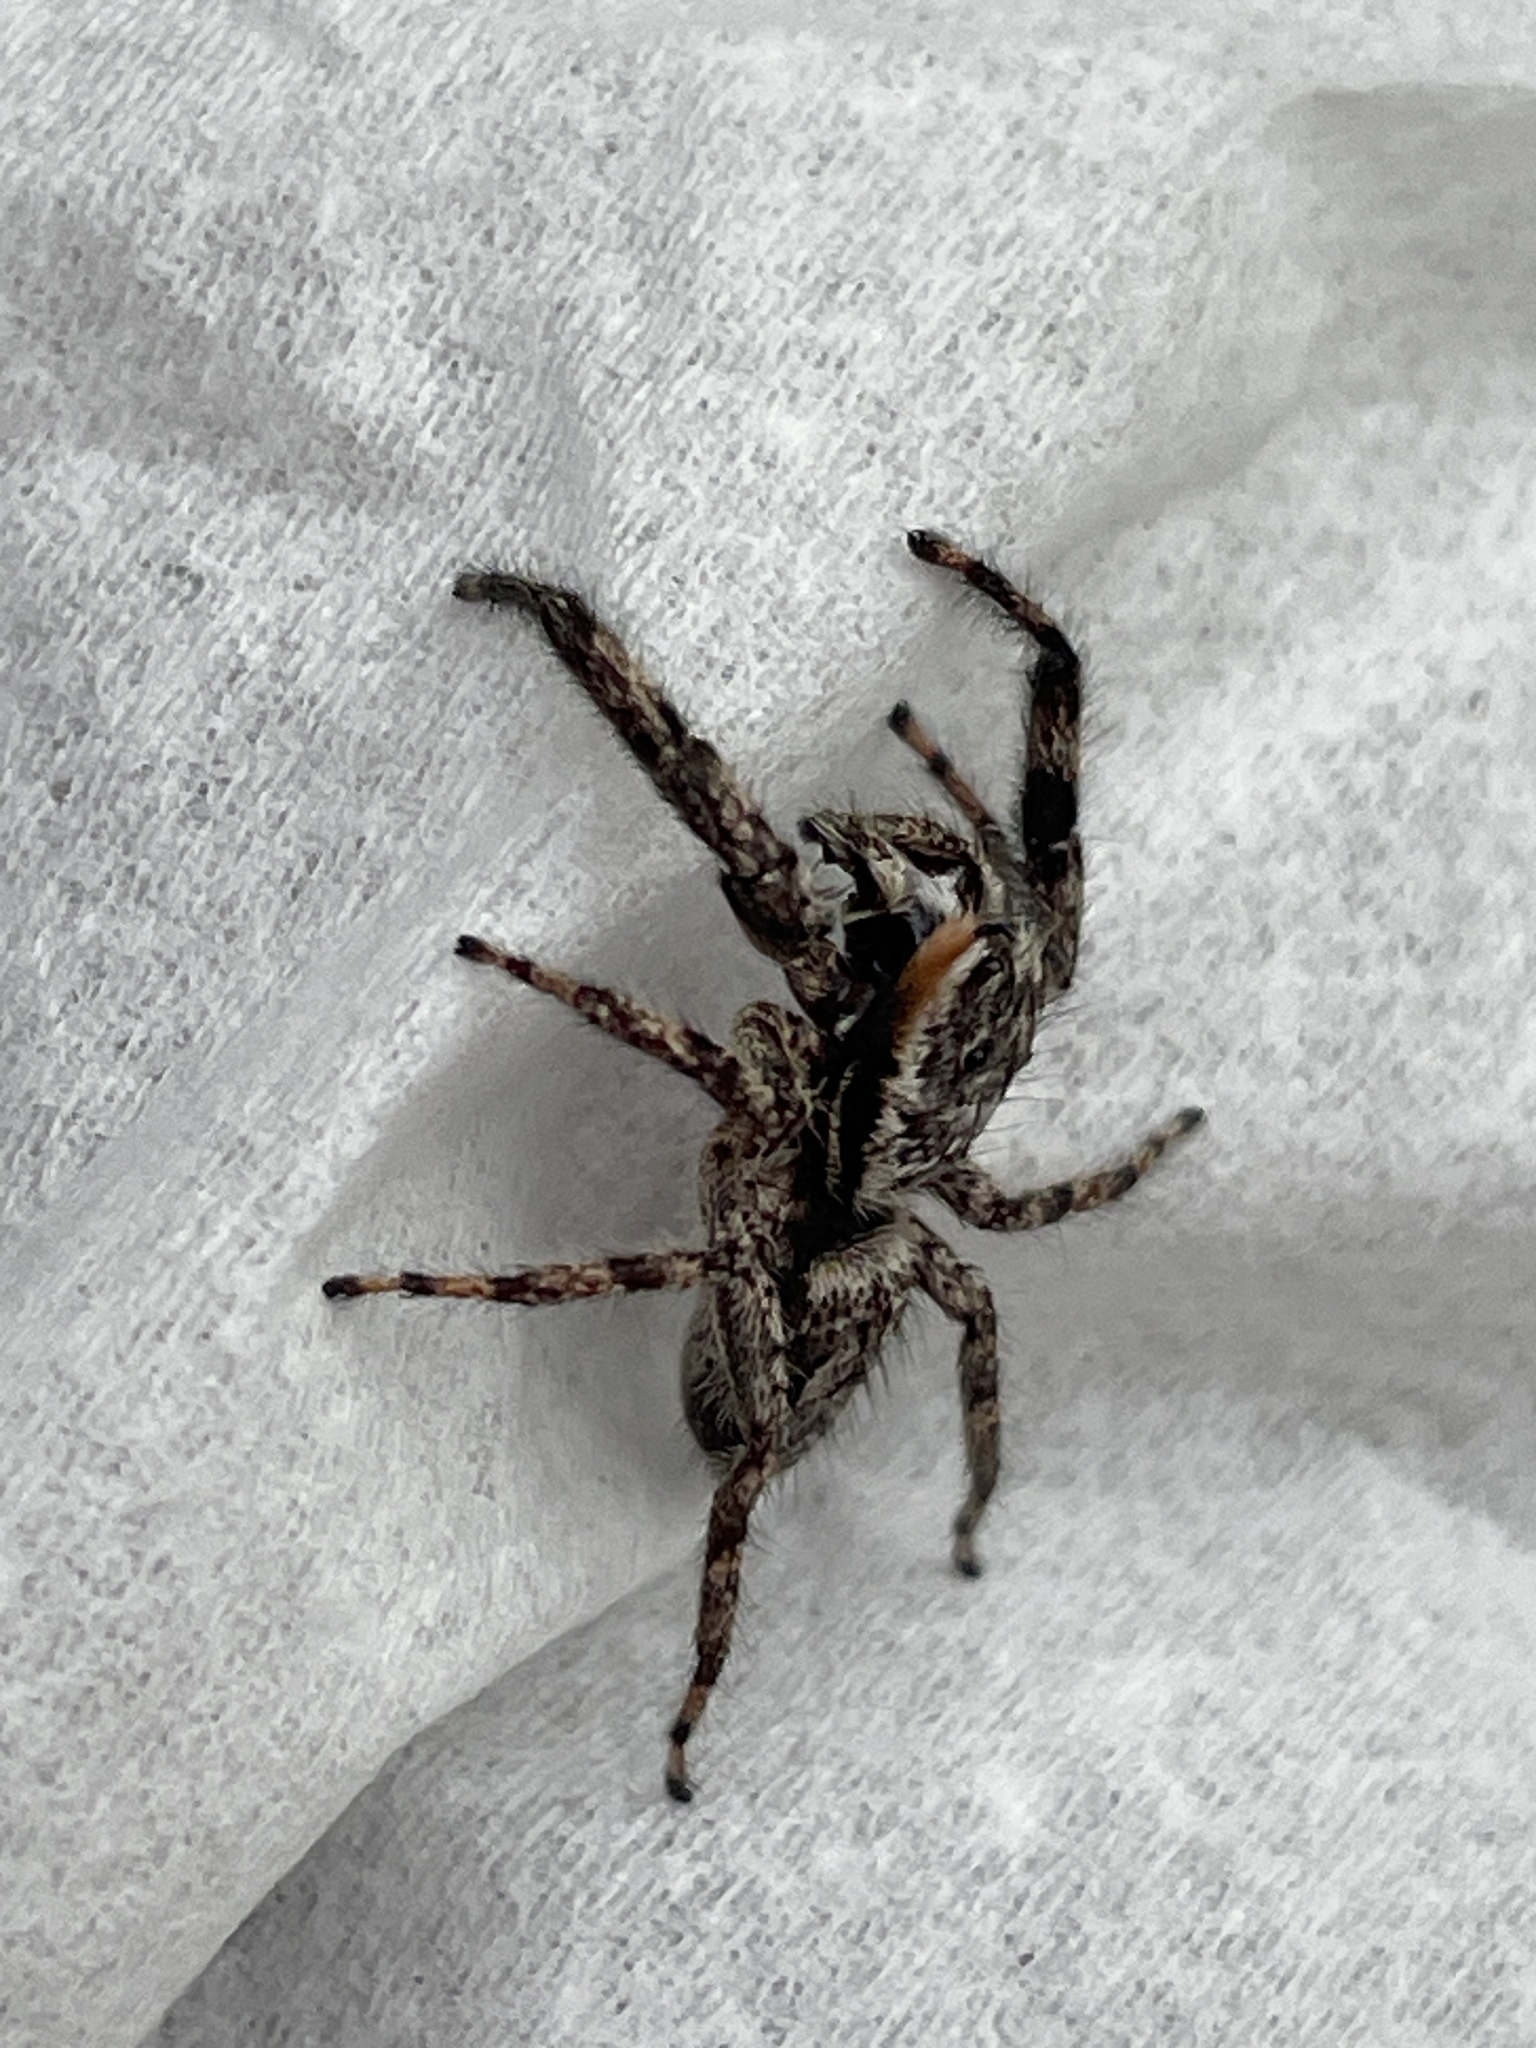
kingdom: Animalia
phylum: Arthropoda
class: Arachnida
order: Araneae
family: Salticidae
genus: Platycryptus
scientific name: Platycryptus undatus
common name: Tan jumping spider
